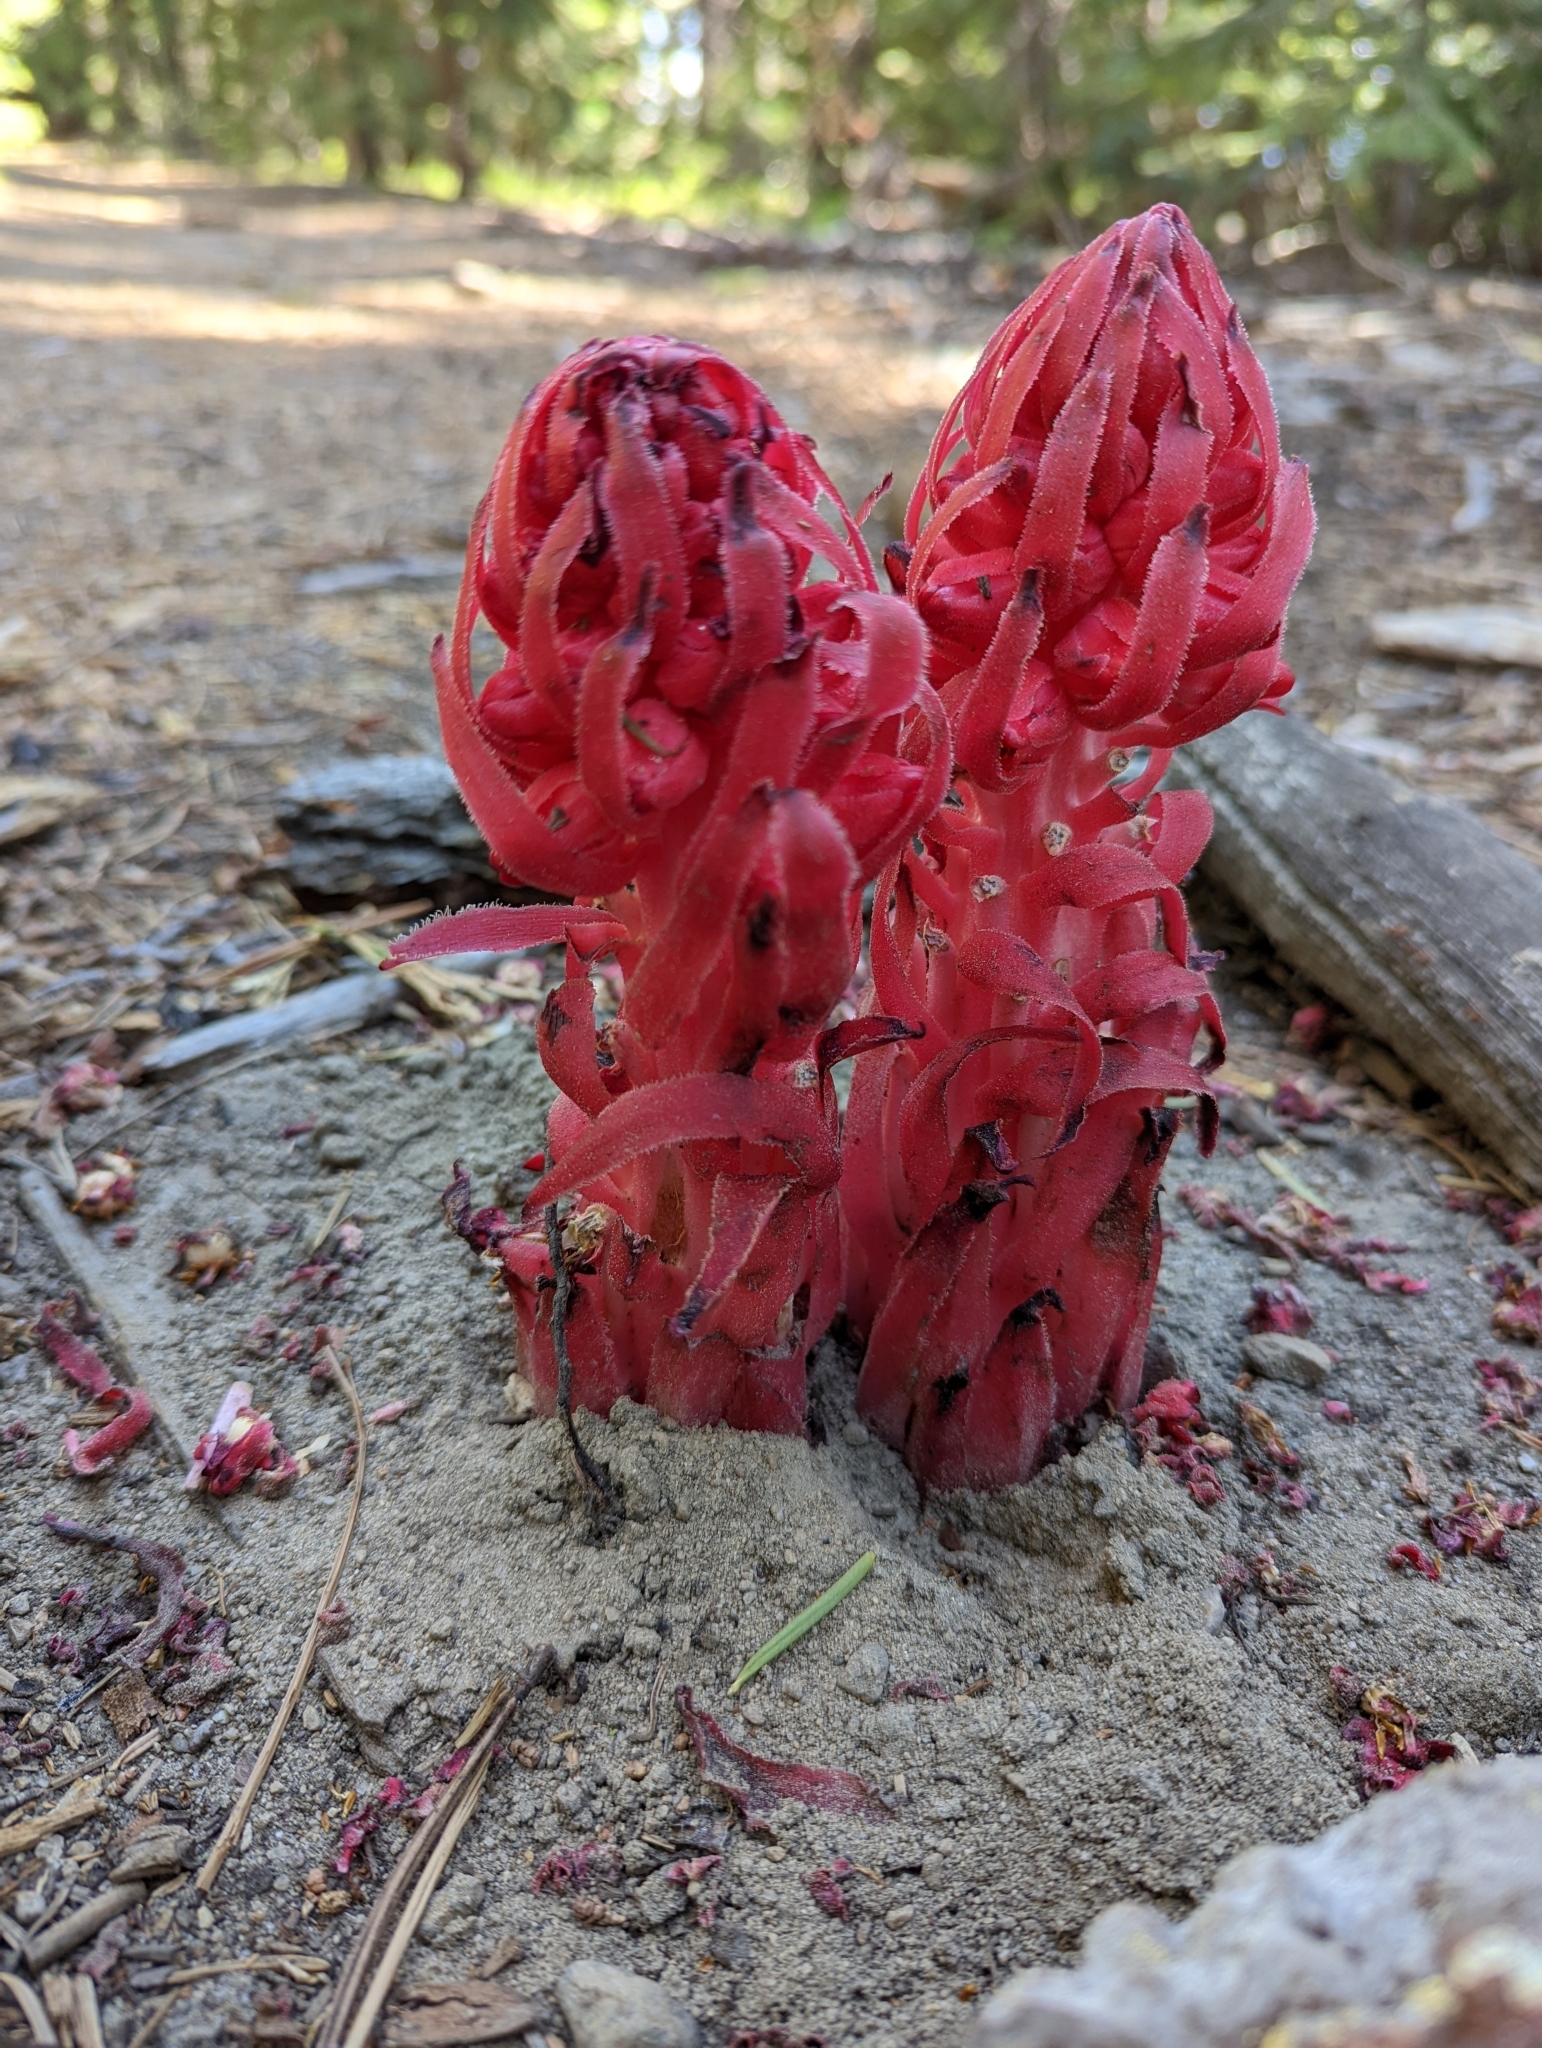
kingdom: Plantae
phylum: Tracheophyta
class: Magnoliopsida
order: Ericales
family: Ericaceae
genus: Sarcodes
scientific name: Sarcodes sanguinea
